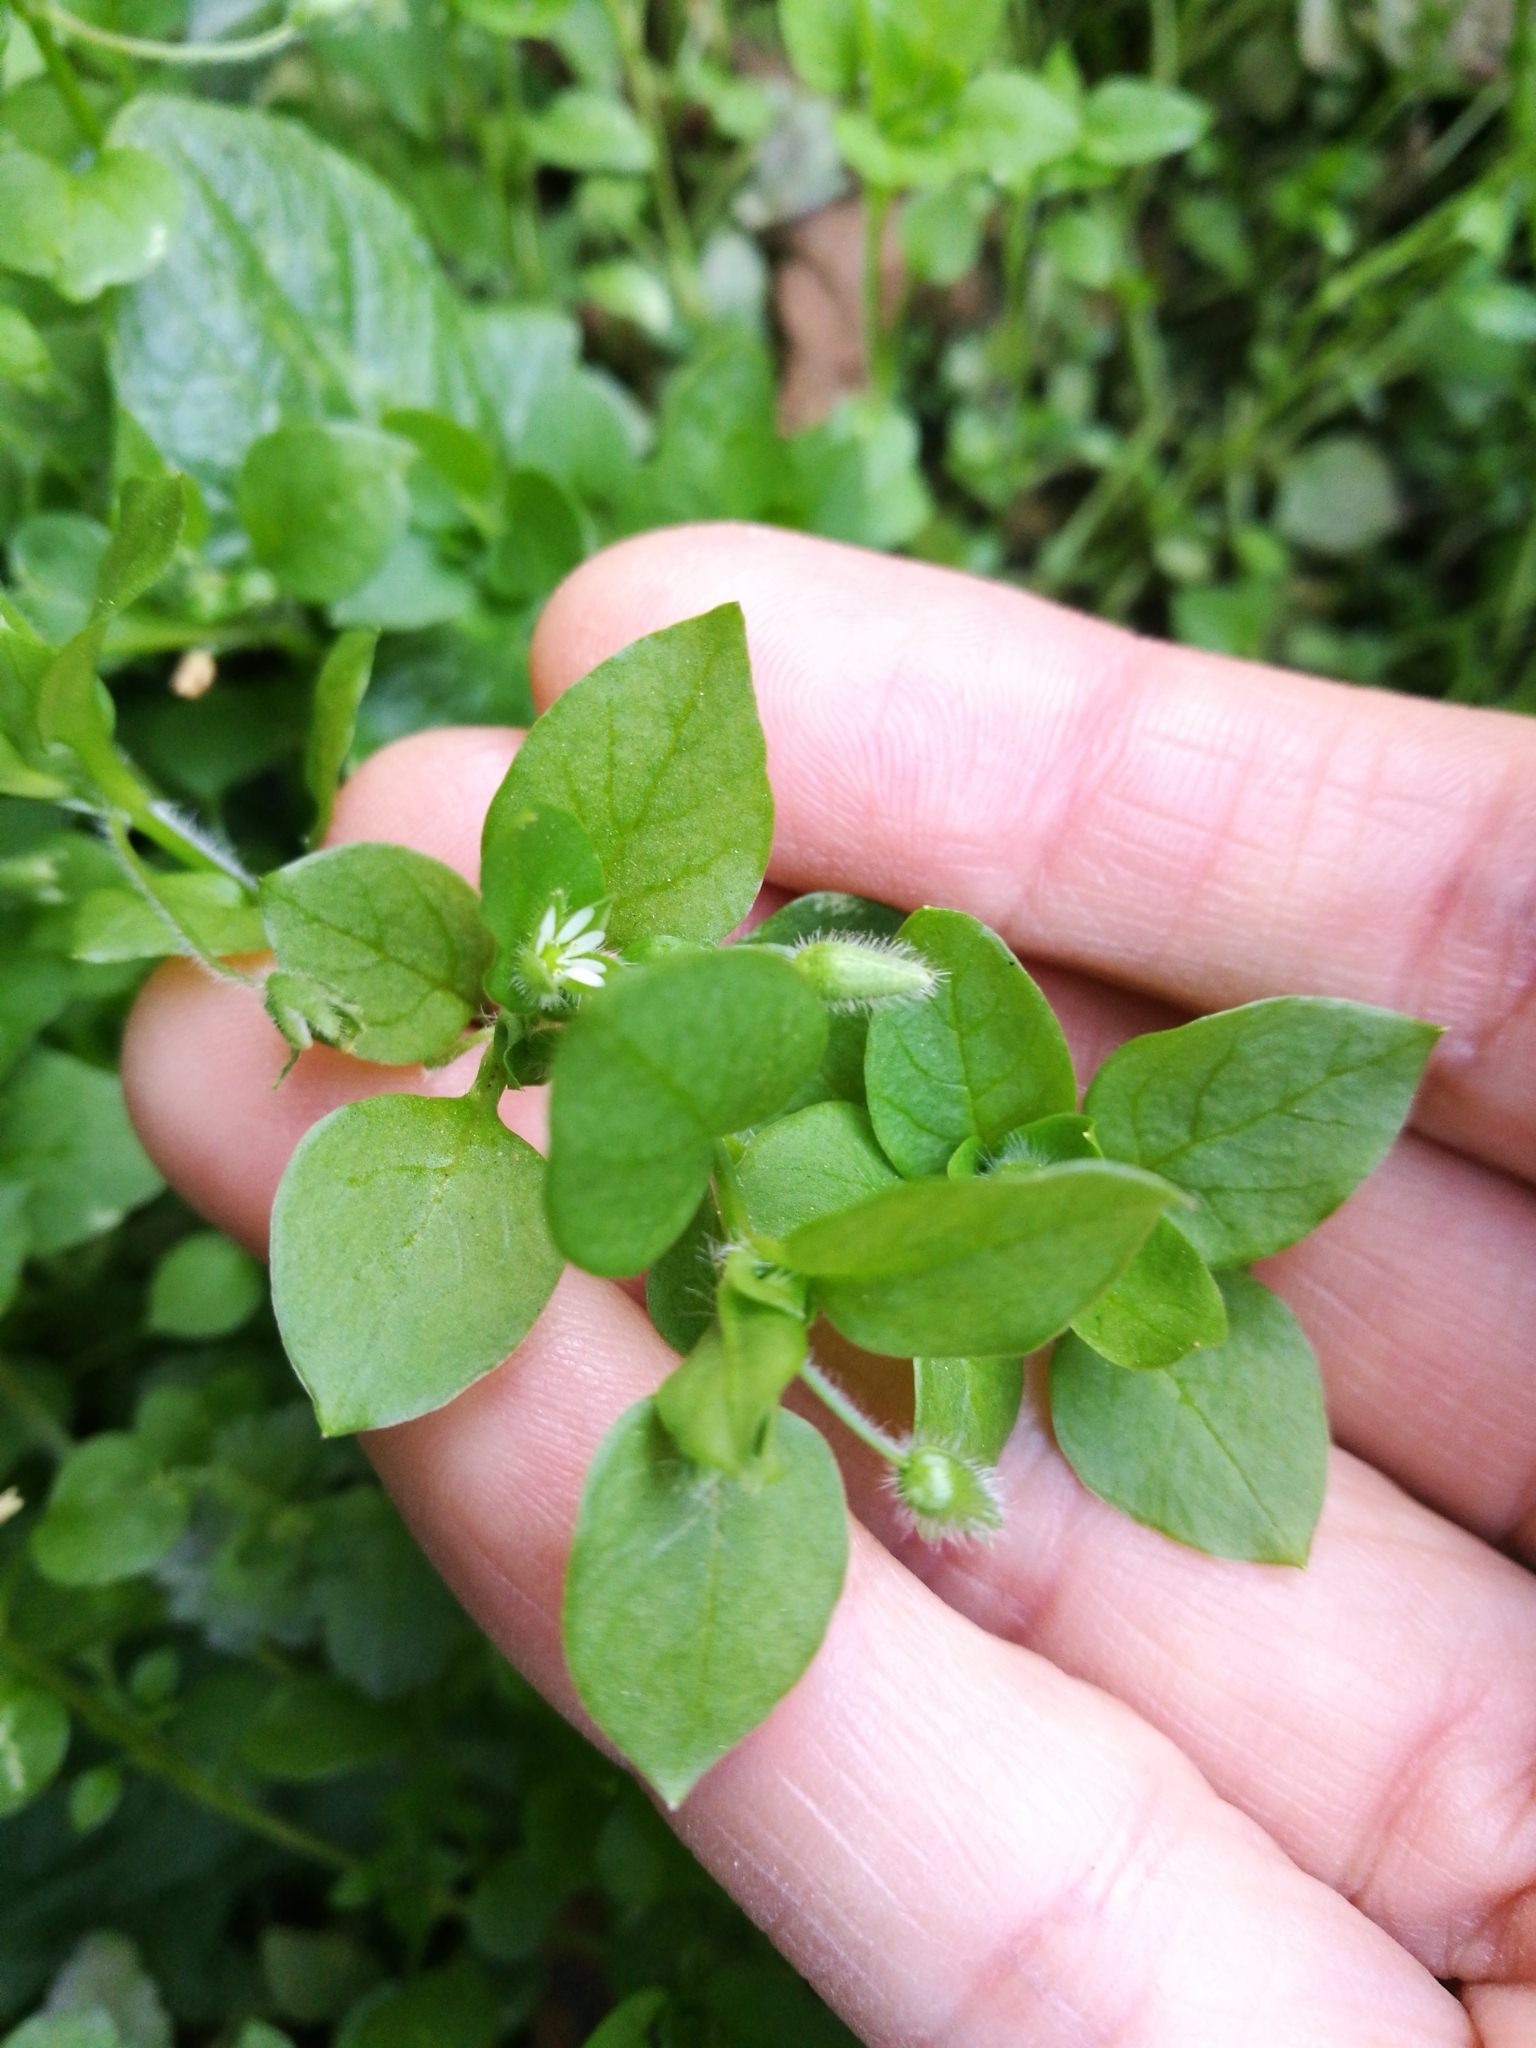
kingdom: Plantae
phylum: Tracheophyta
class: Magnoliopsida
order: Caryophyllales
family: Caryophyllaceae
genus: Stellaria
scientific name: Stellaria media
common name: Common chickweed
